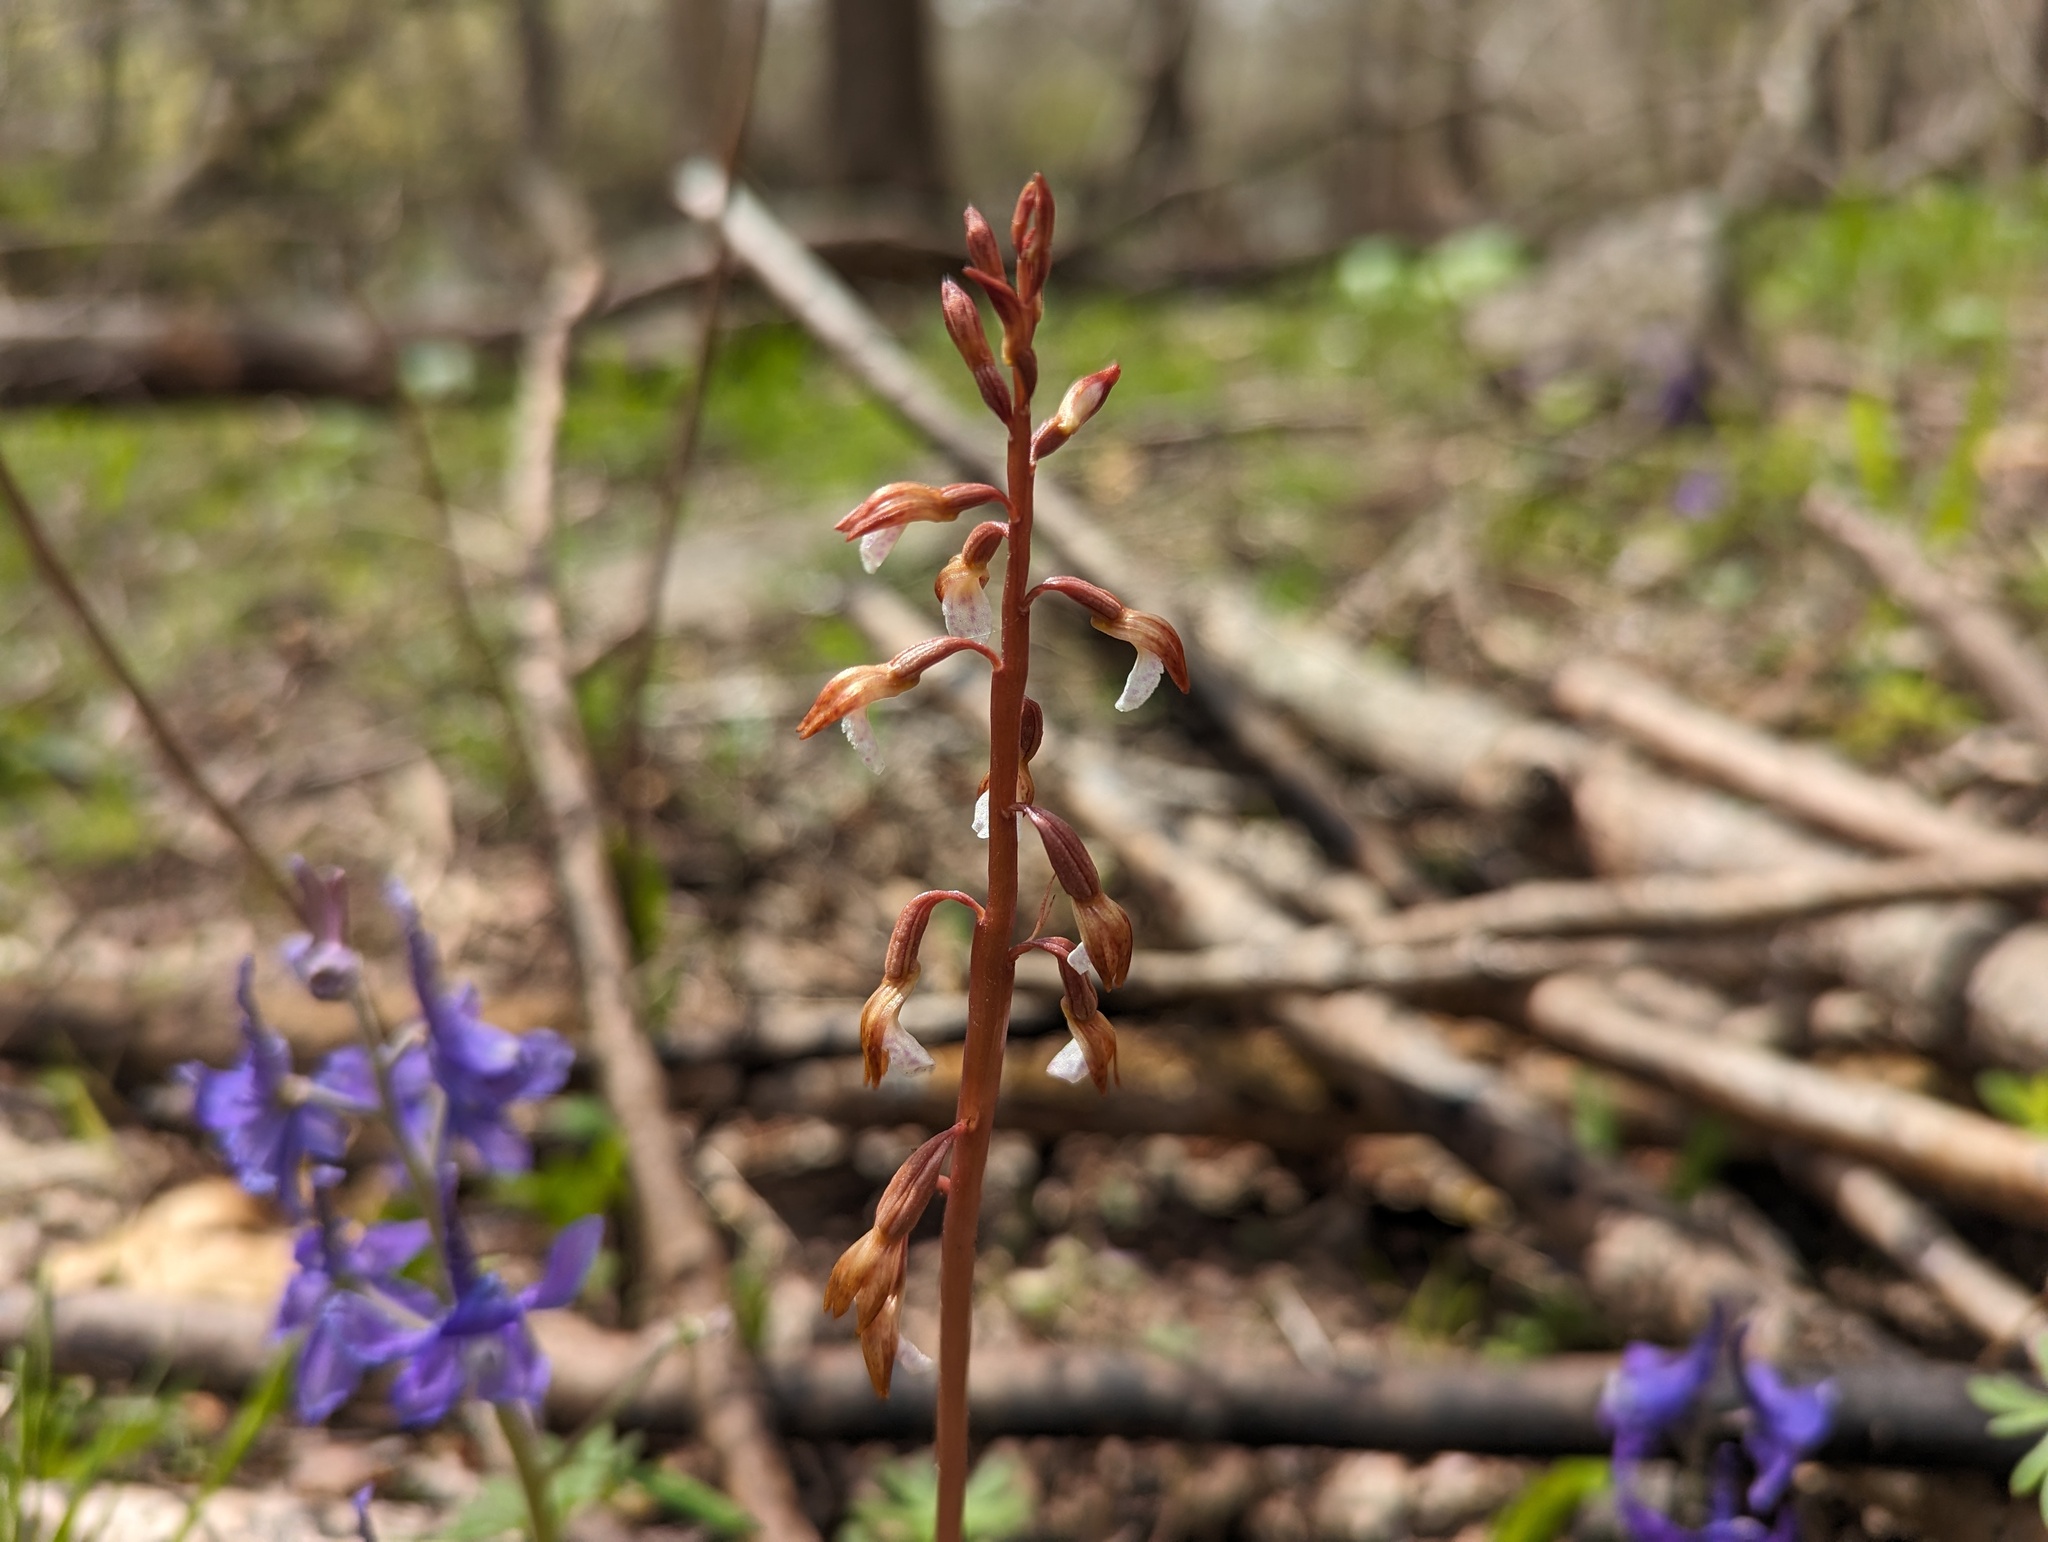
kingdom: Plantae
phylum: Tracheophyta
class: Liliopsida
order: Asparagales
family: Orchidaceae
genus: Corallorhiza
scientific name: Corallorhiza wisteriana
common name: Spring coralroot
